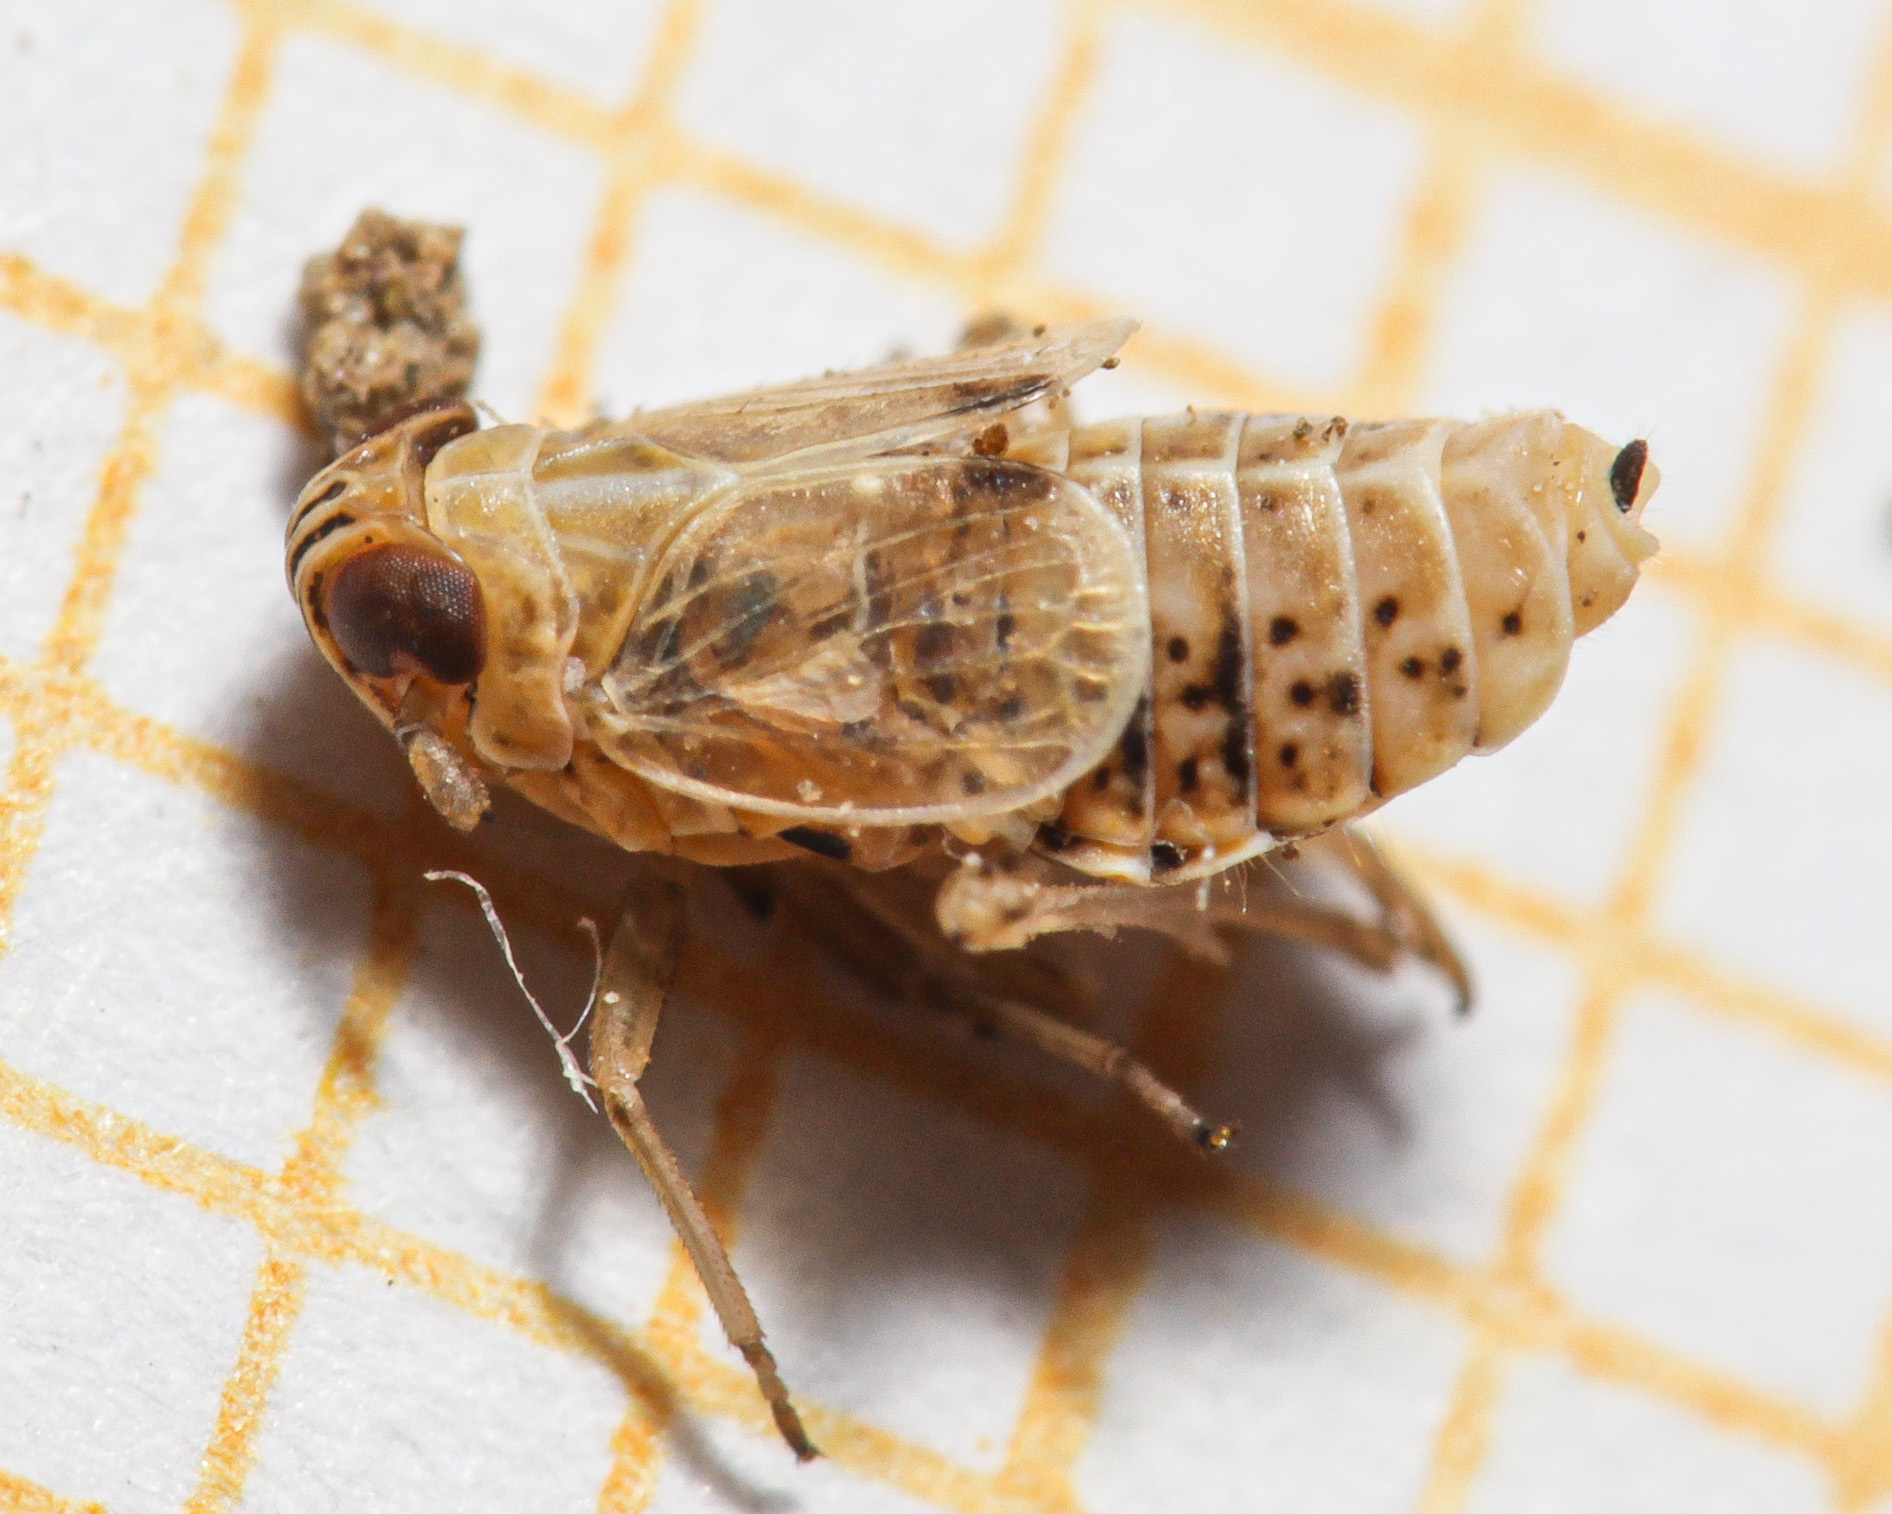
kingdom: Animalia
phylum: Arthropoda
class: Insecta
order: Hemiptera
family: Delphacidae
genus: Dicranotropis
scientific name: Dicranotropis hamata
